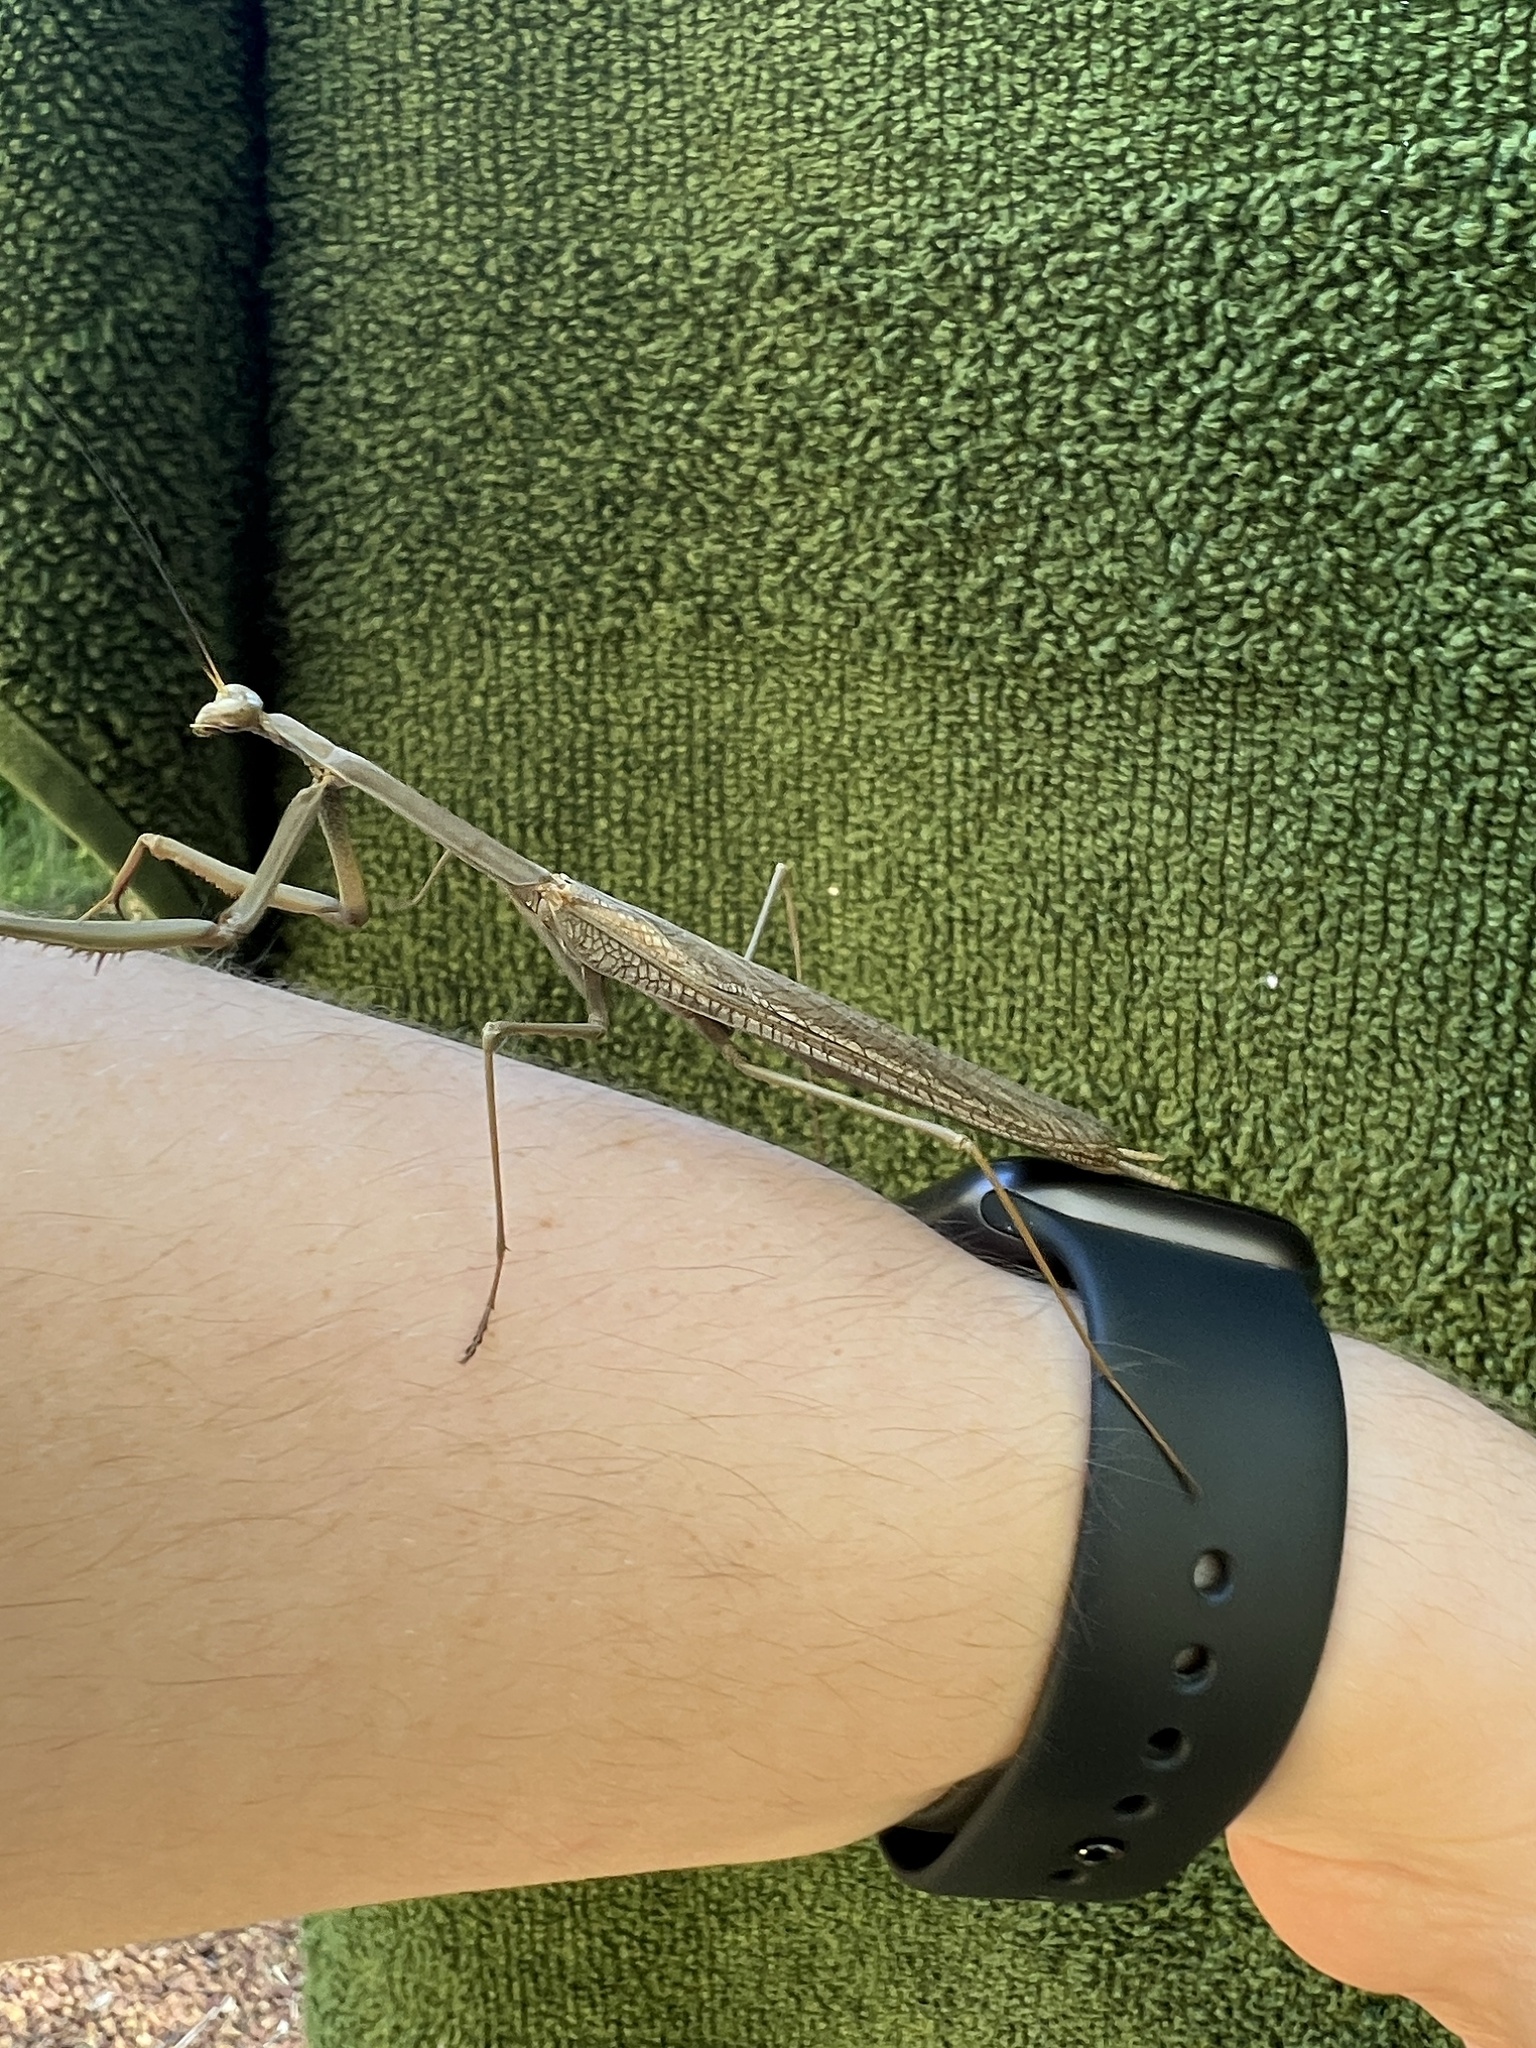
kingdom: Animalia
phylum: Arthropoda
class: Insecta
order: Mantodea
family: Mantidae
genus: Archimantis
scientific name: Archimantis sobrina
